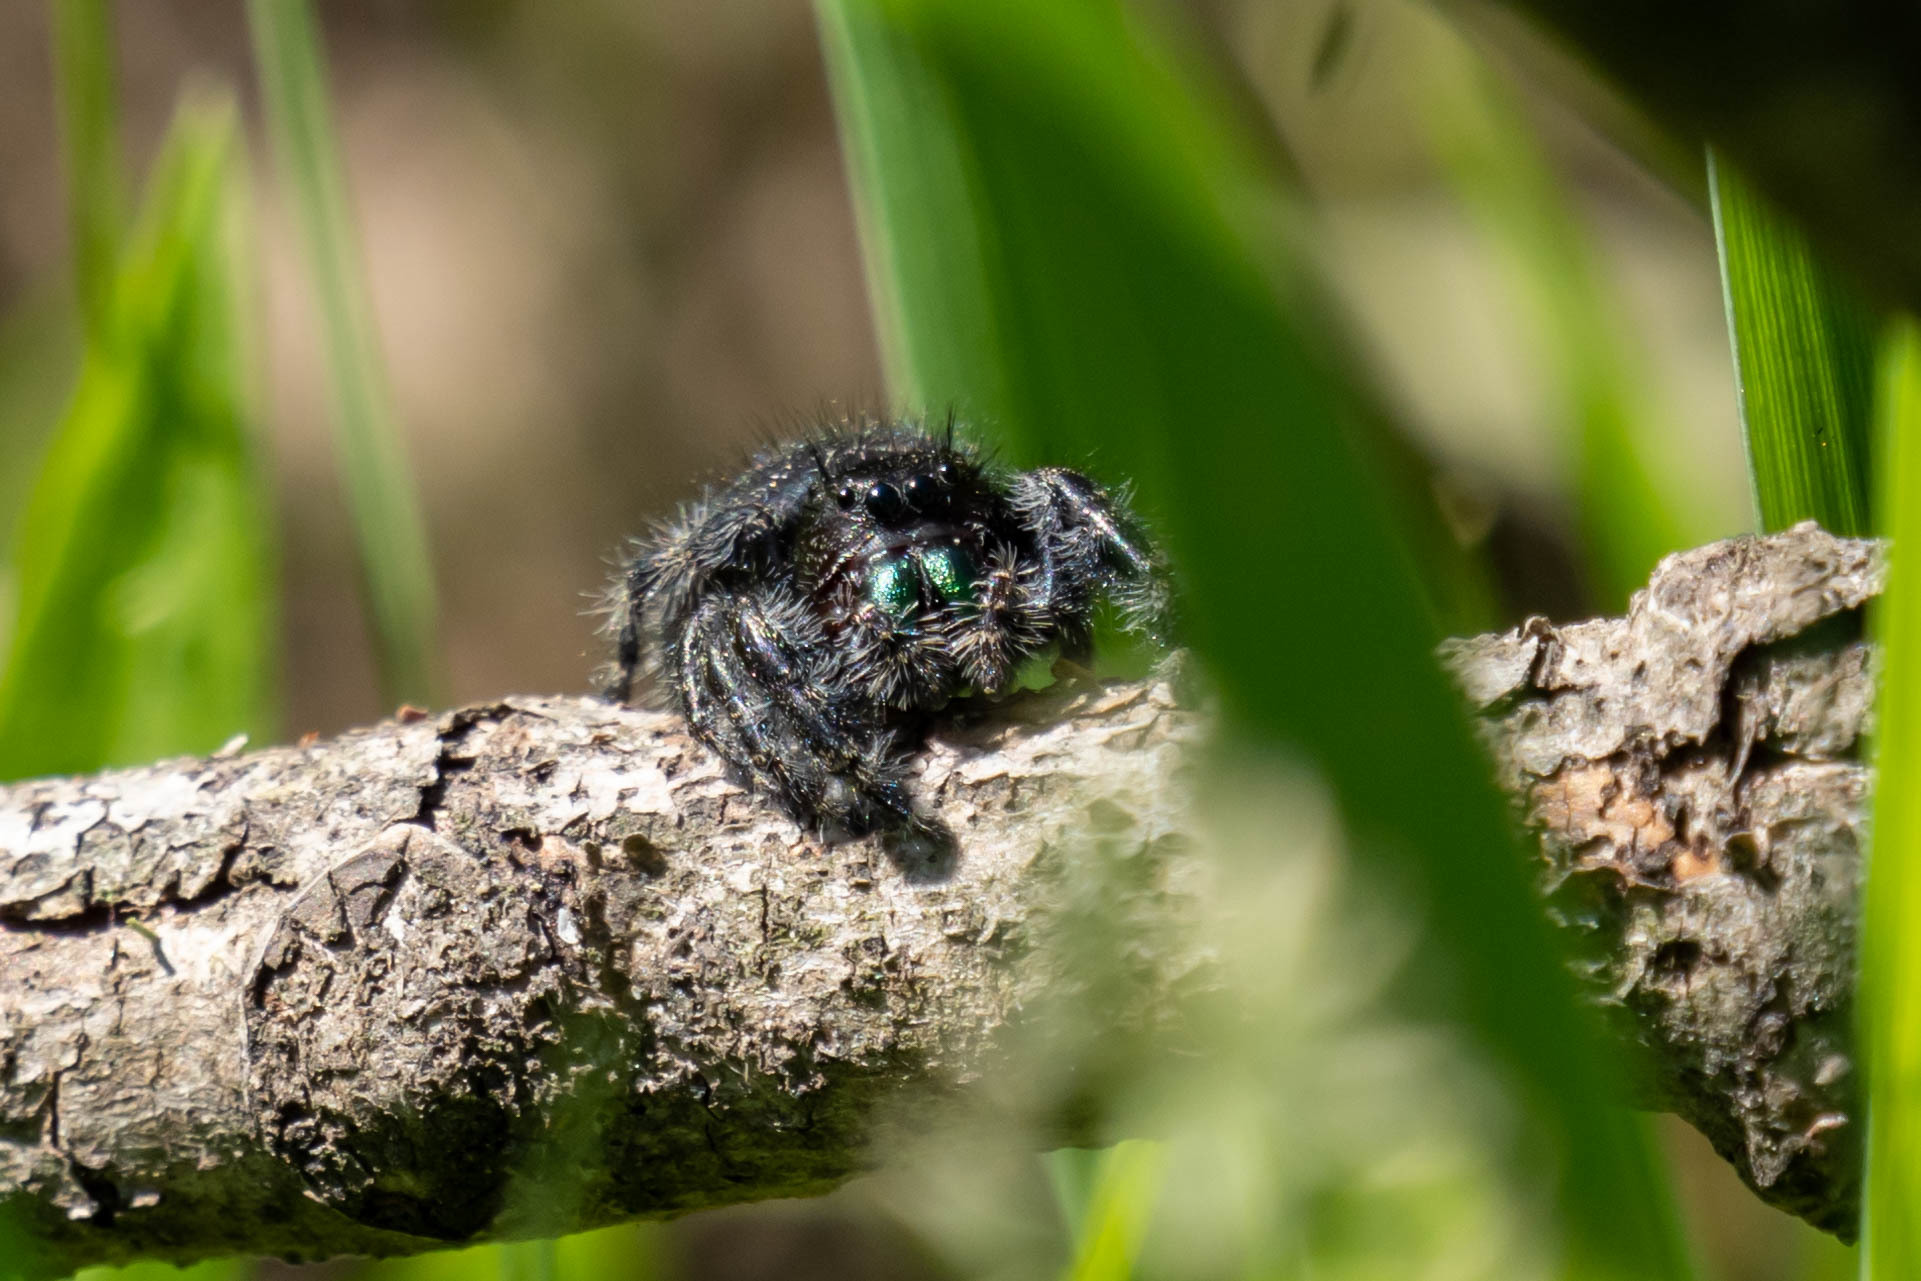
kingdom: Animalia
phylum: Arthropoda
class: Arachnida
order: Araneae
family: Salticidae
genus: Phidippus
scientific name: Phidippus audax
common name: Bold jumper
